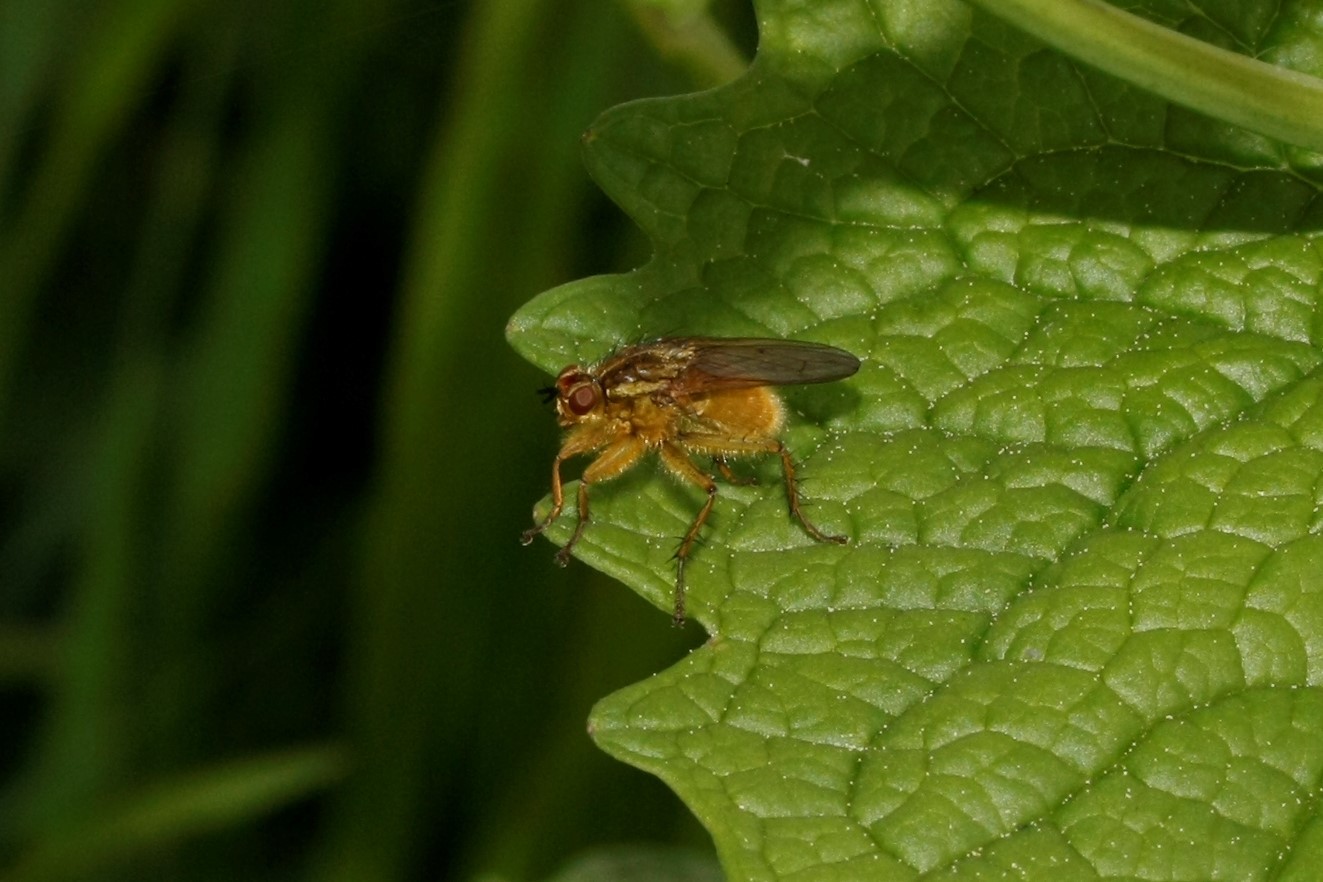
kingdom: Animalia
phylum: Arthropoda
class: Insecta
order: Diptera
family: Scathophagidae
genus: Scathophaga
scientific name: Scathophaga stercoraria
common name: Yellow dung fly
